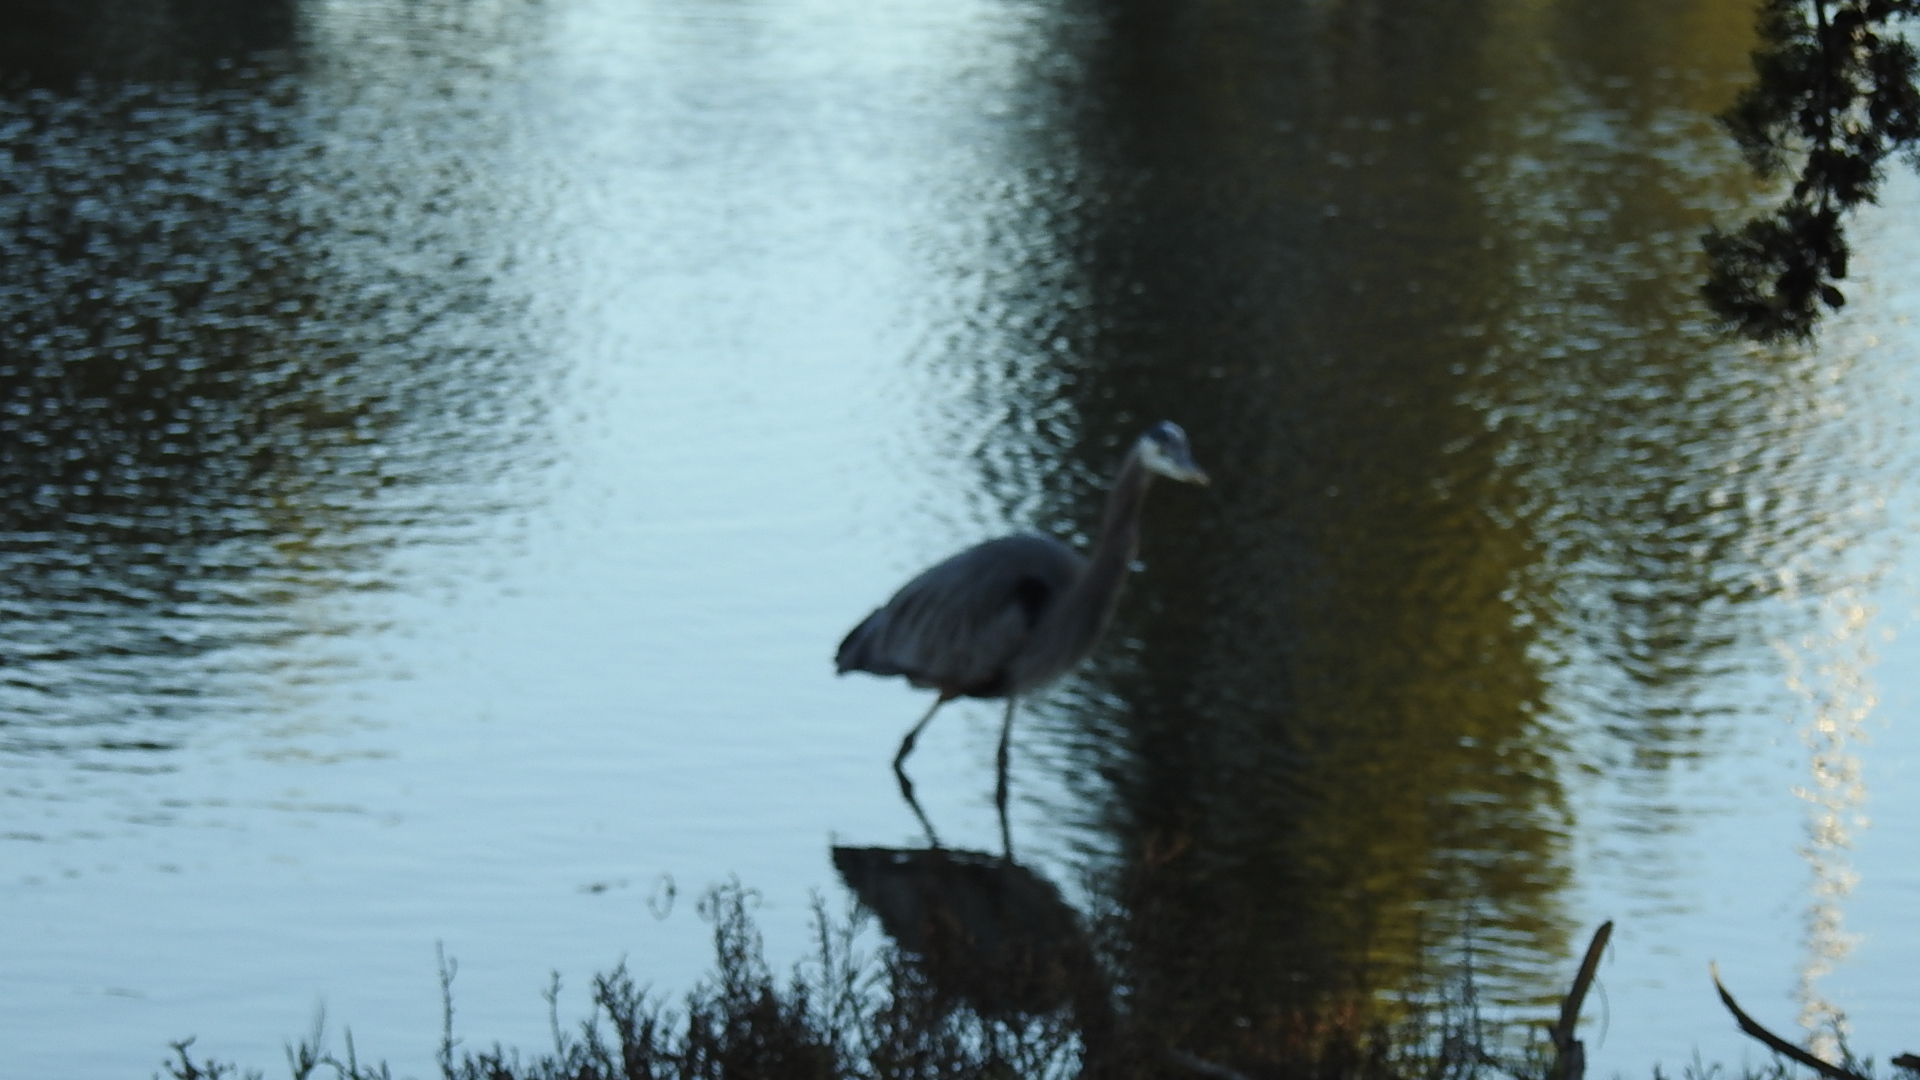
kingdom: Animalia
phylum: Chordata
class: Aves
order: Pelecaniformes
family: Ardeidae
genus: Ardea
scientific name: Ardea herodias
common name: Great blue heron
